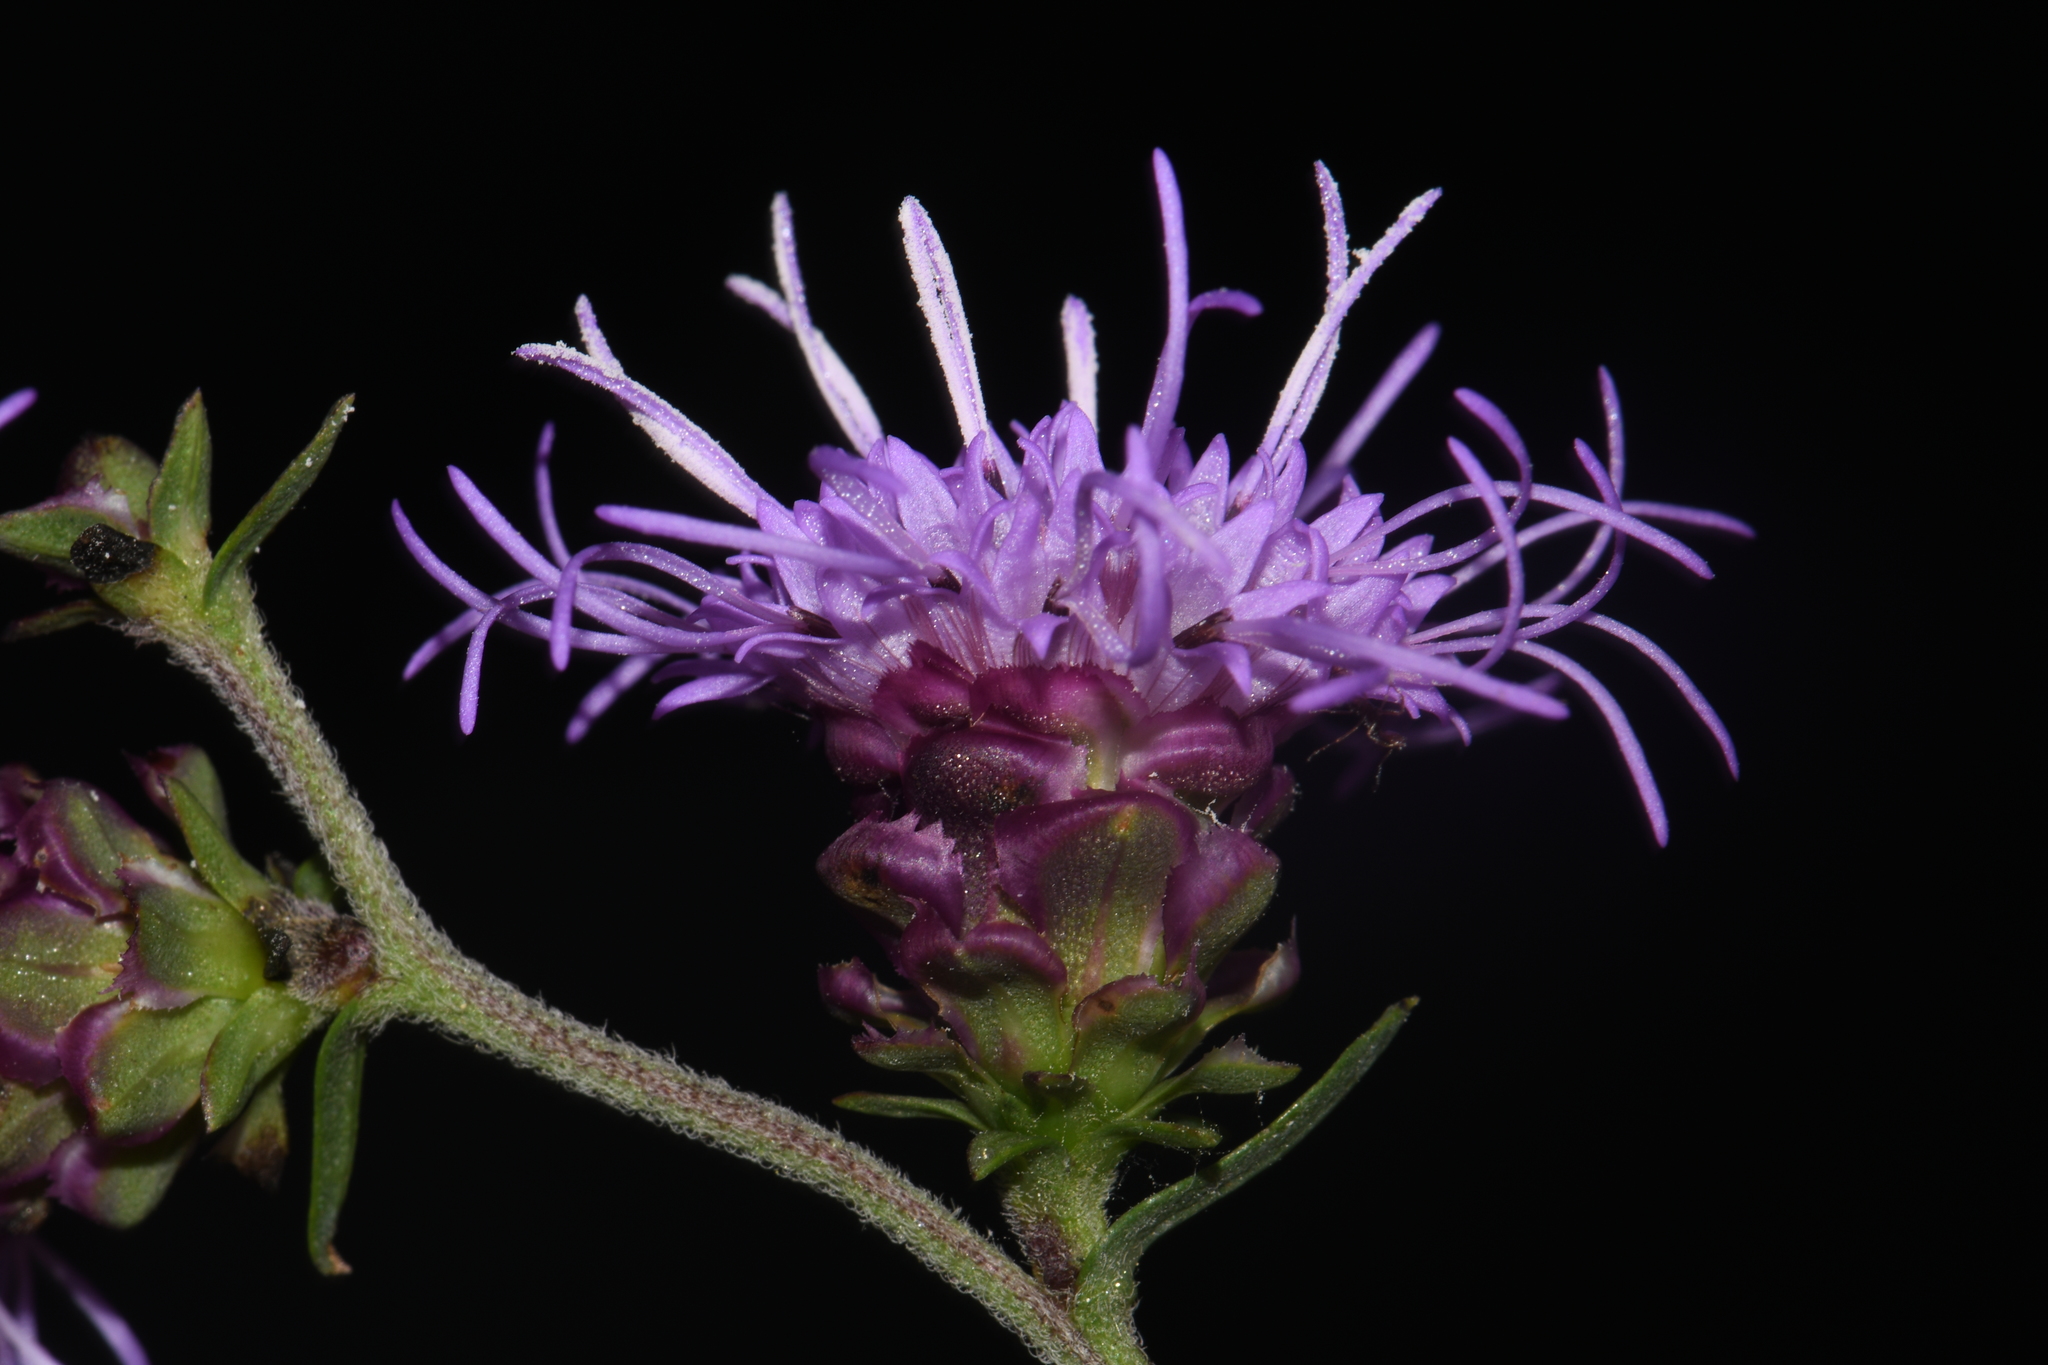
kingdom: Plantae
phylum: Tracheophyta
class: Magnoliopsida
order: Asterales
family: Asteraceae
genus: Liatris
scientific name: Liatris aspera
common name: Lacerate blazing-star
